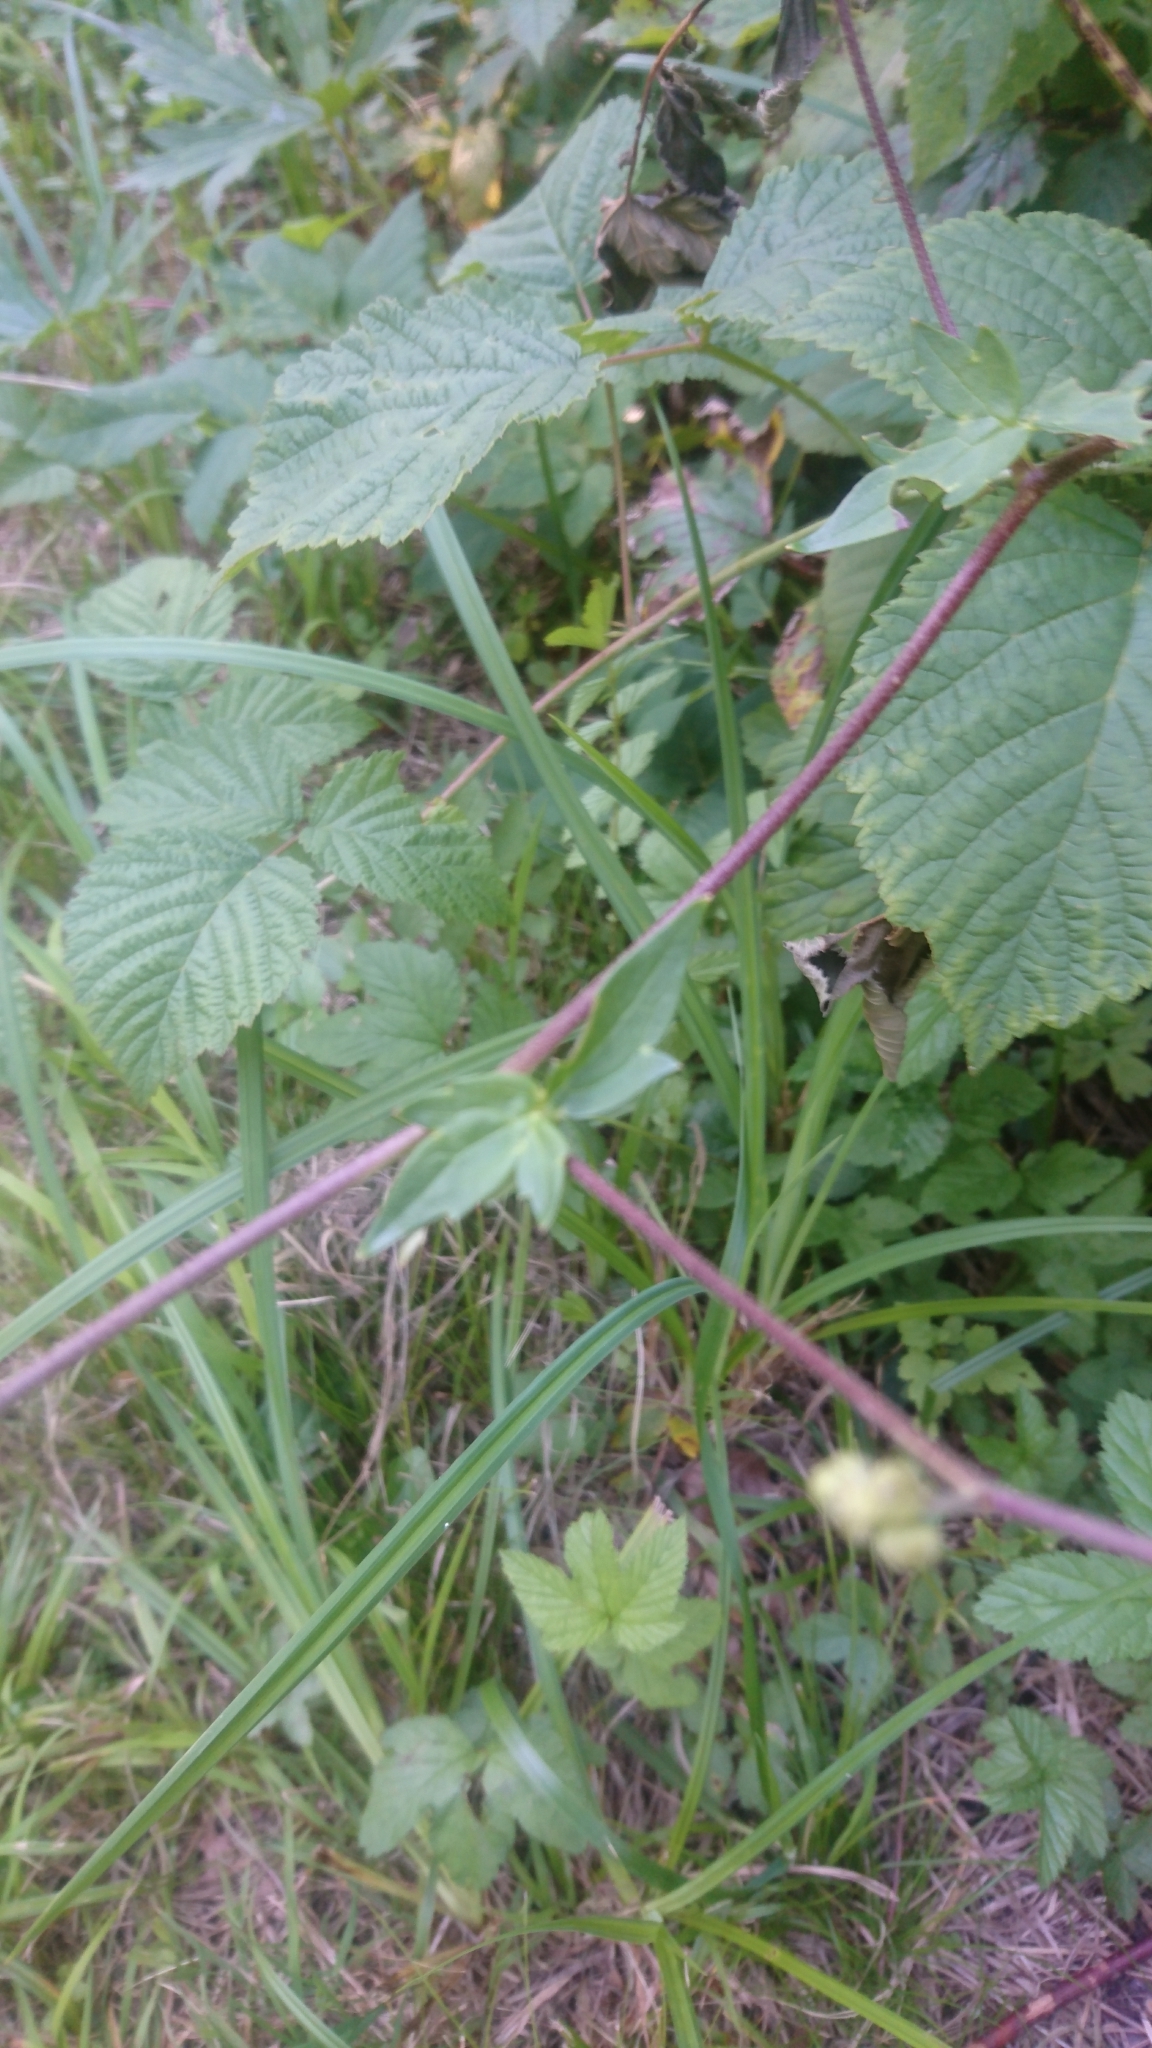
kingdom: Plantae
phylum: Tracheophyta
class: Magnoliopsida
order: Ranunculales
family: Ranunculaceae
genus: Aconitum
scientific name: Aconitum lycoctonum
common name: Wolf's-bane
